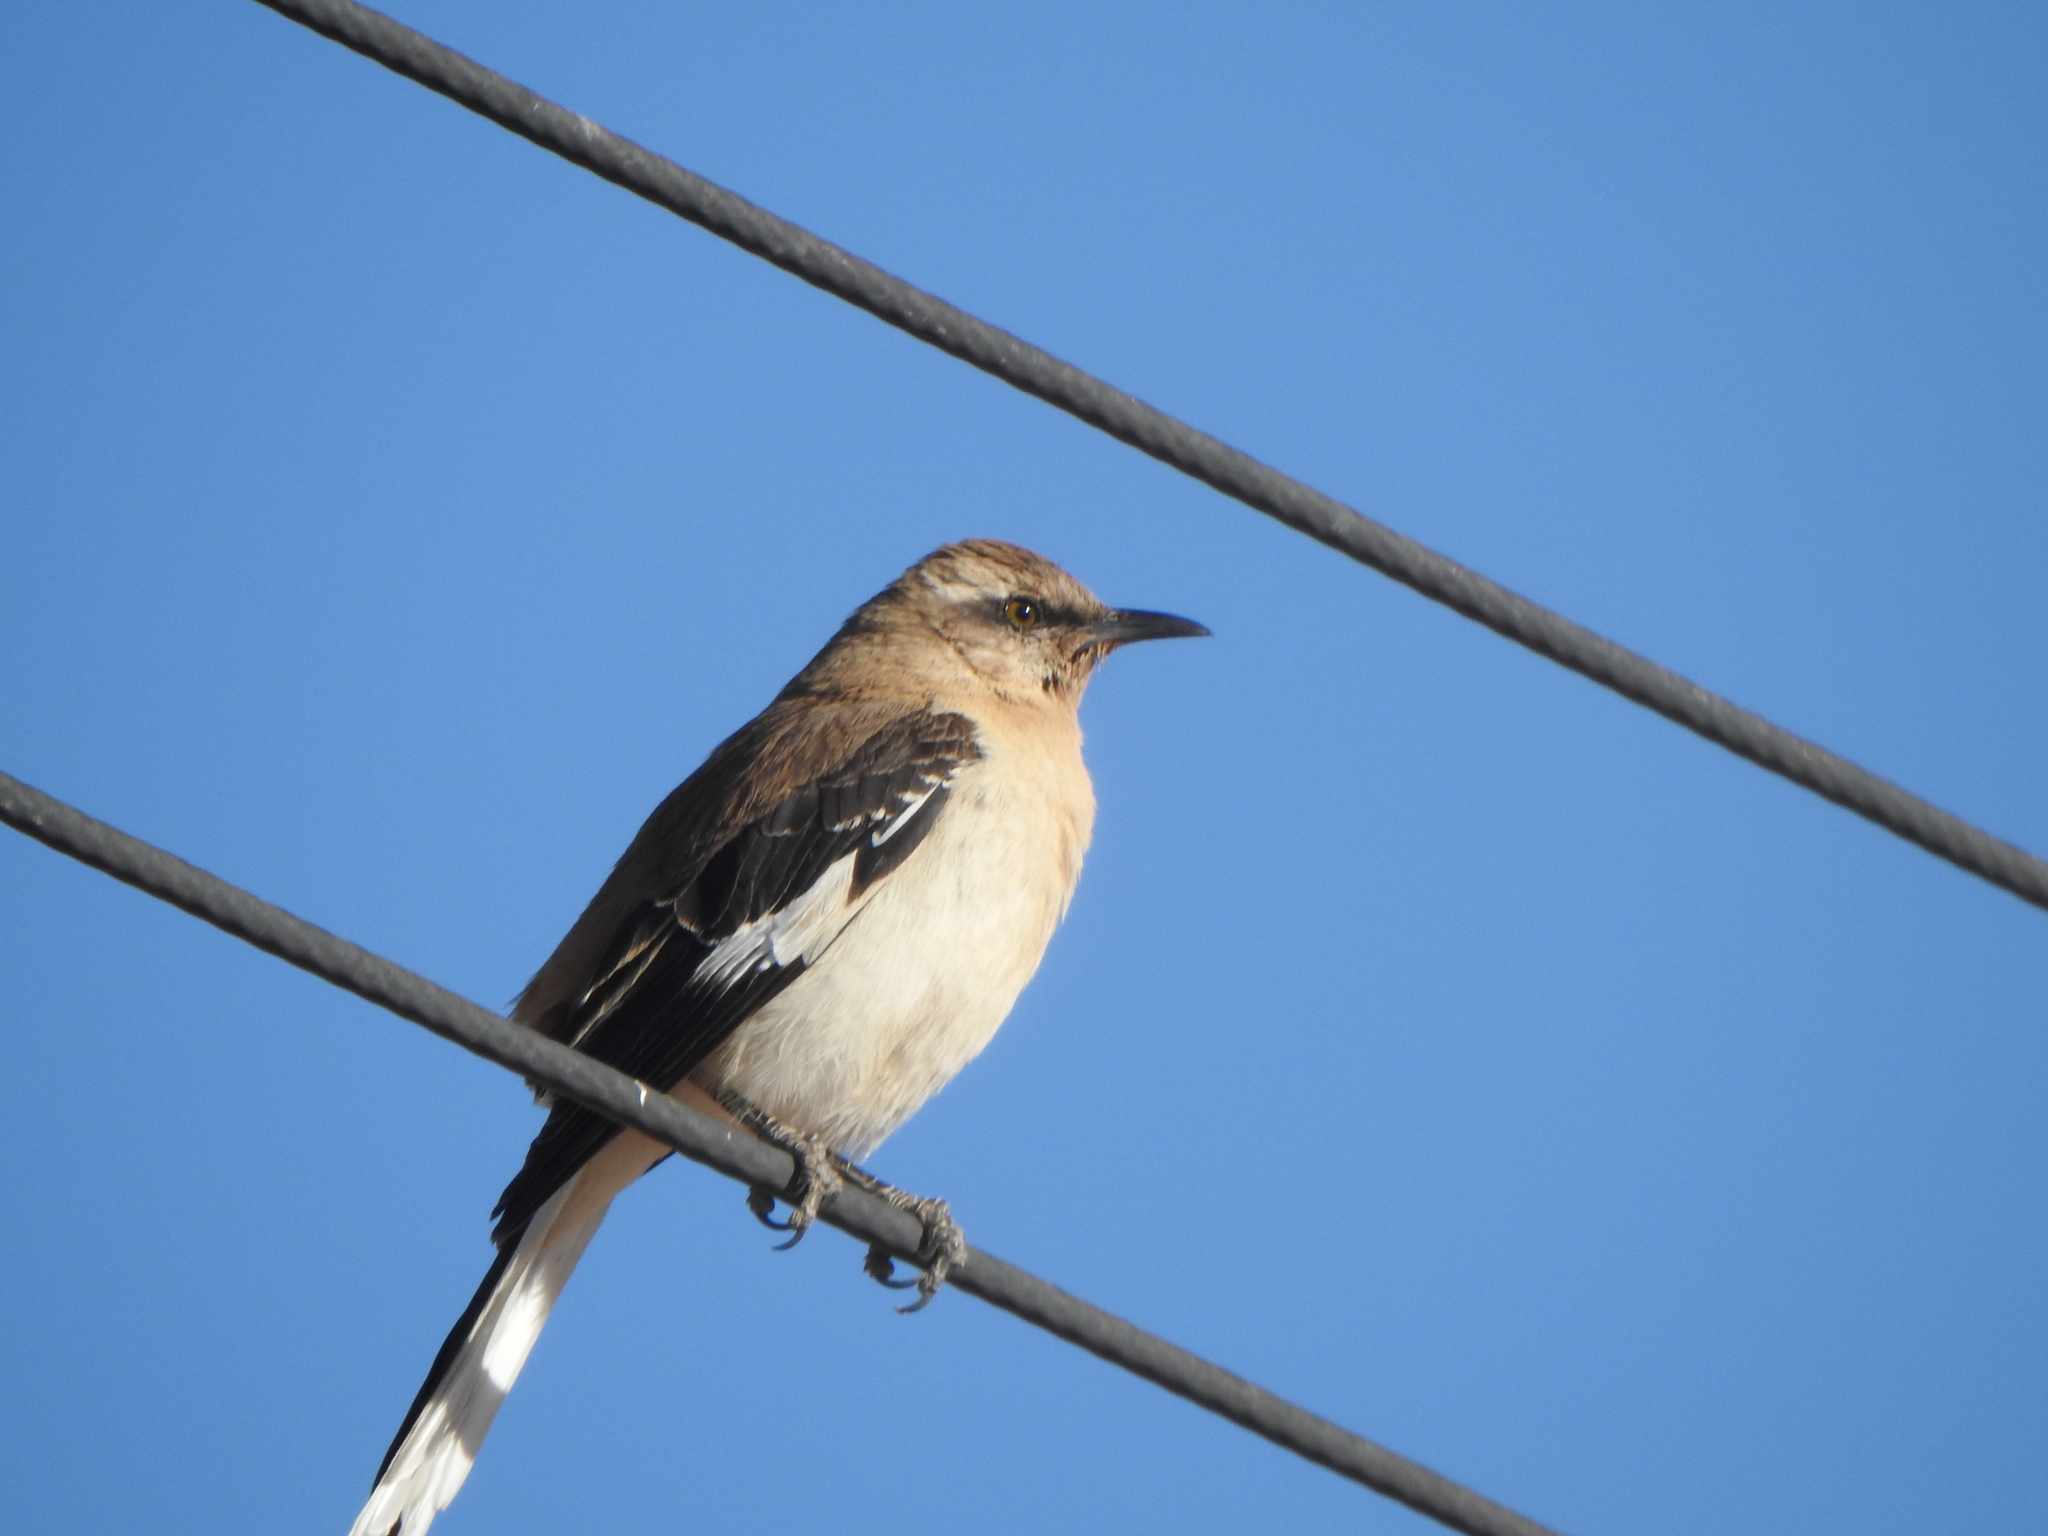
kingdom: Animalia
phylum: Chordata
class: Aves
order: Passeriformes
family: Mimidae
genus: Mimus
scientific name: Mimus dorsalis
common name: Brown-backed mockingbird
